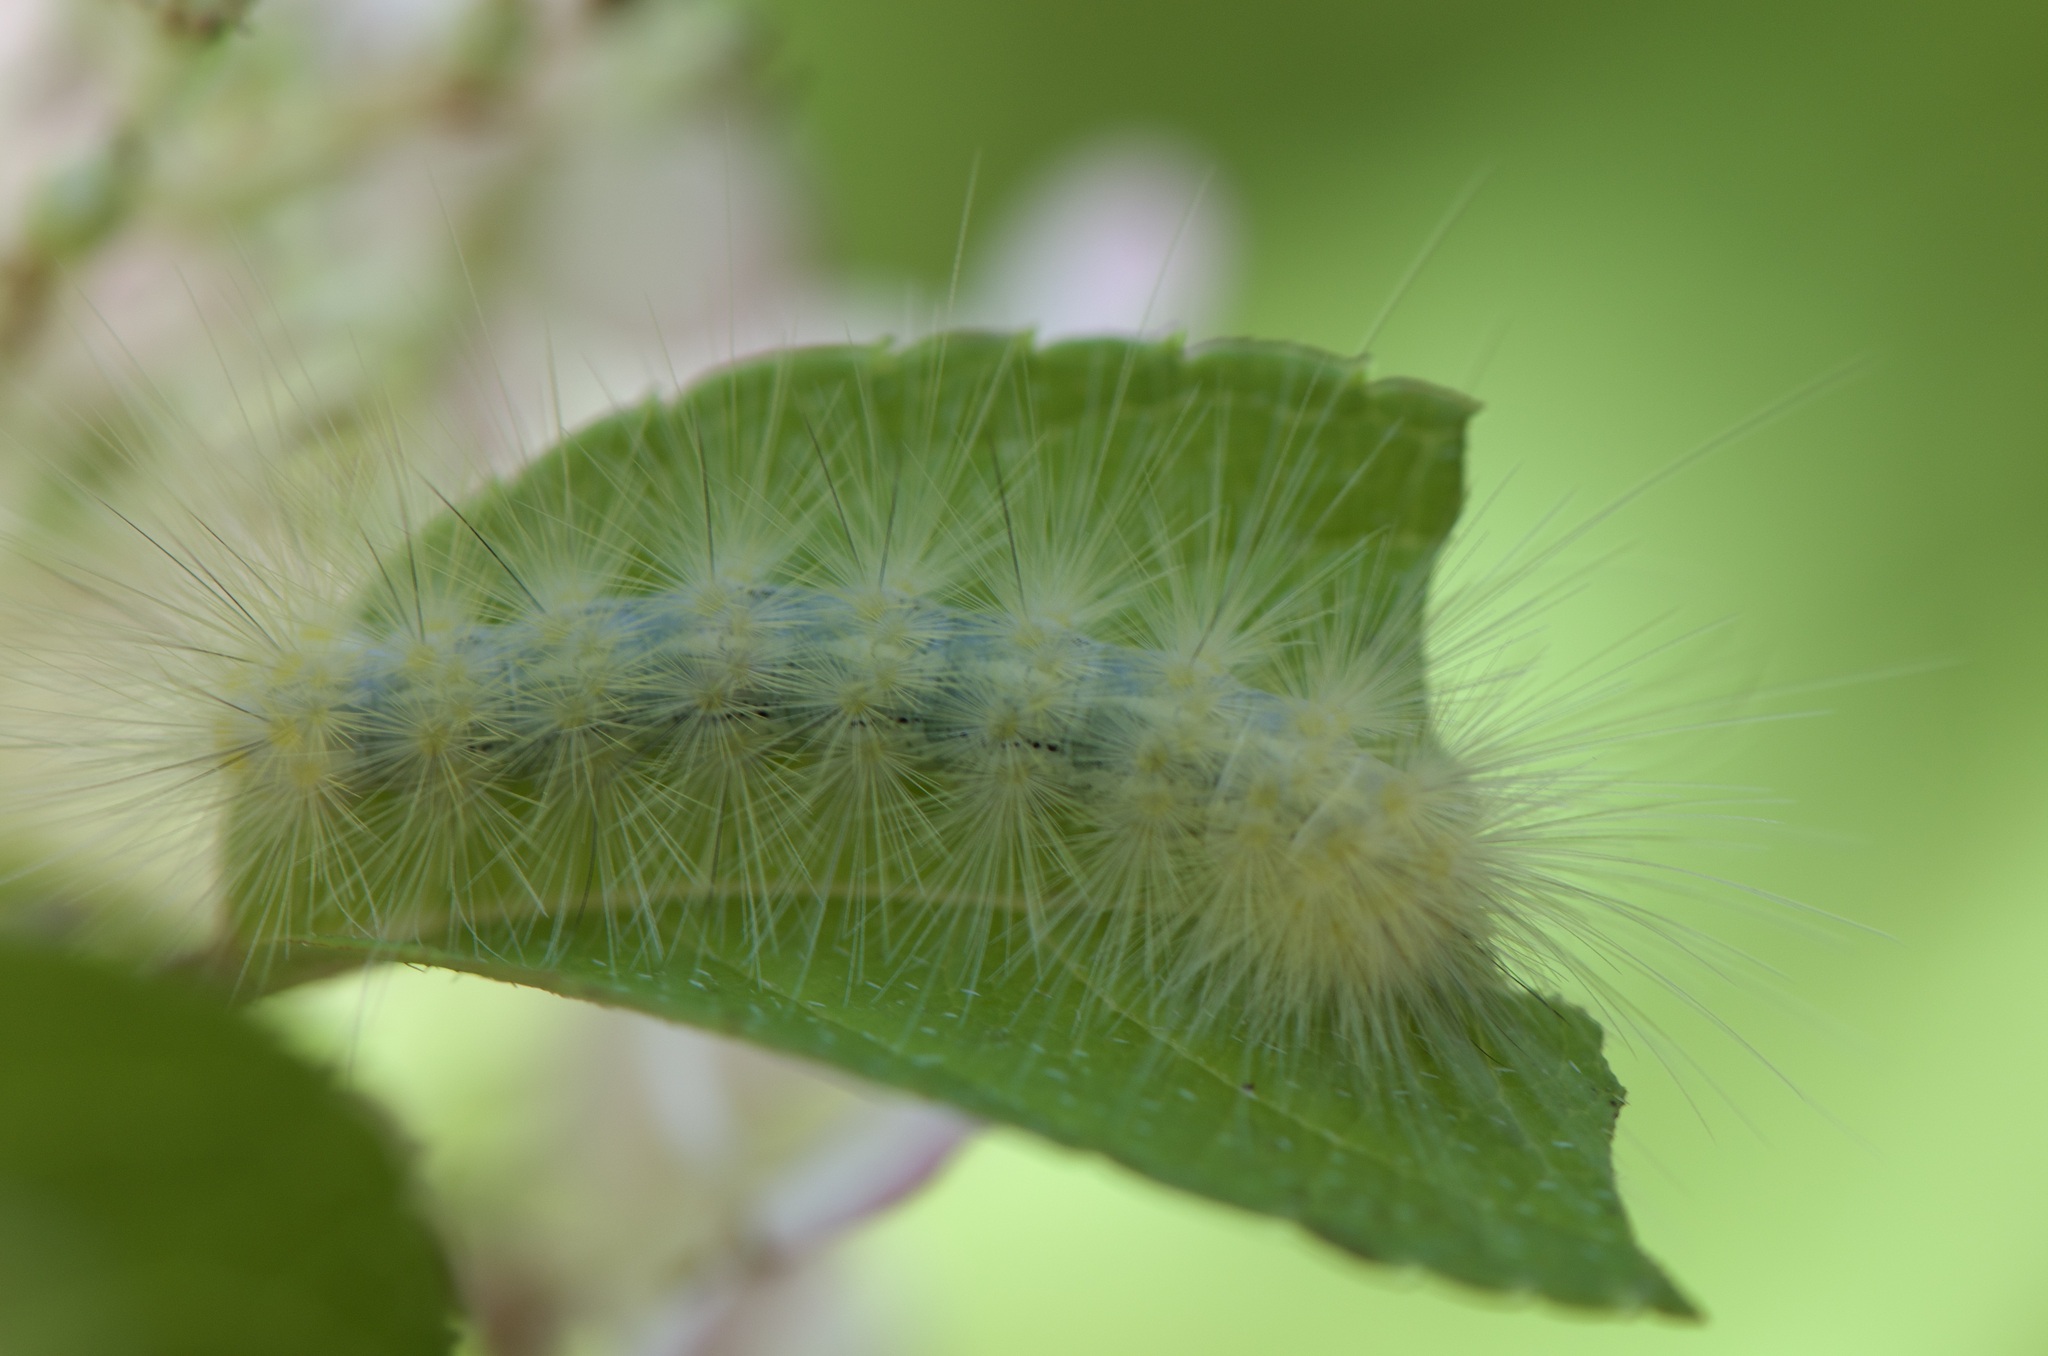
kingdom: Animalia
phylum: Arthropoda
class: Insecta
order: Lepidoptera
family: Erebidae
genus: Spilosoma
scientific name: Spilosoma virginica
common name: Virginia tiger moth
